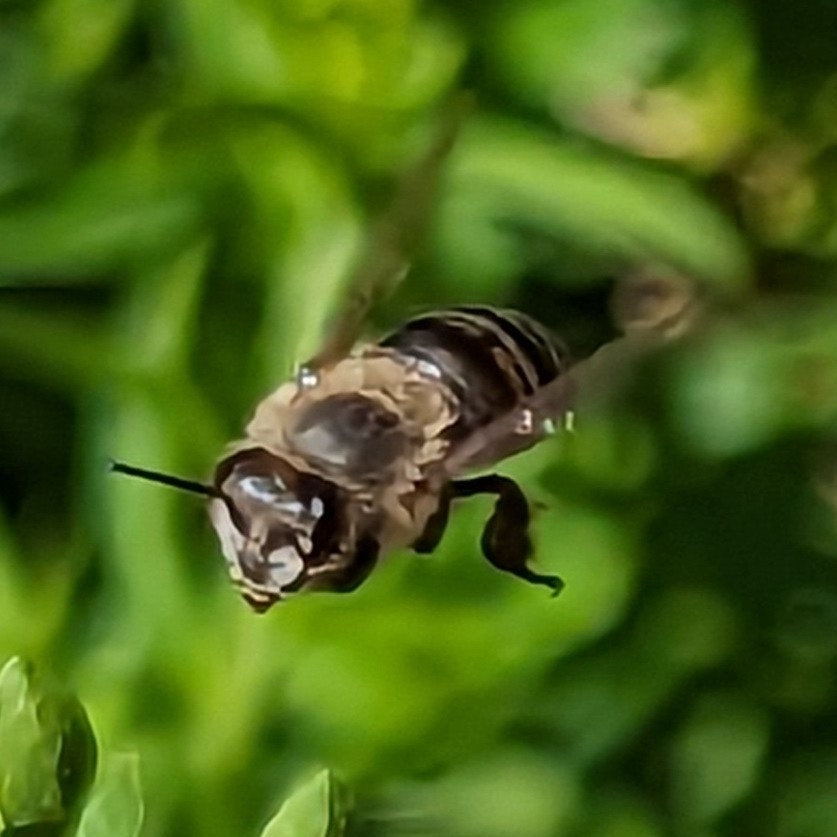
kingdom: Animalia
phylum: Arthropoda
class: Insecta
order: Hymenoptera
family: Apidae
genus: Apis
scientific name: Apis mellifera
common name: Honey bee
